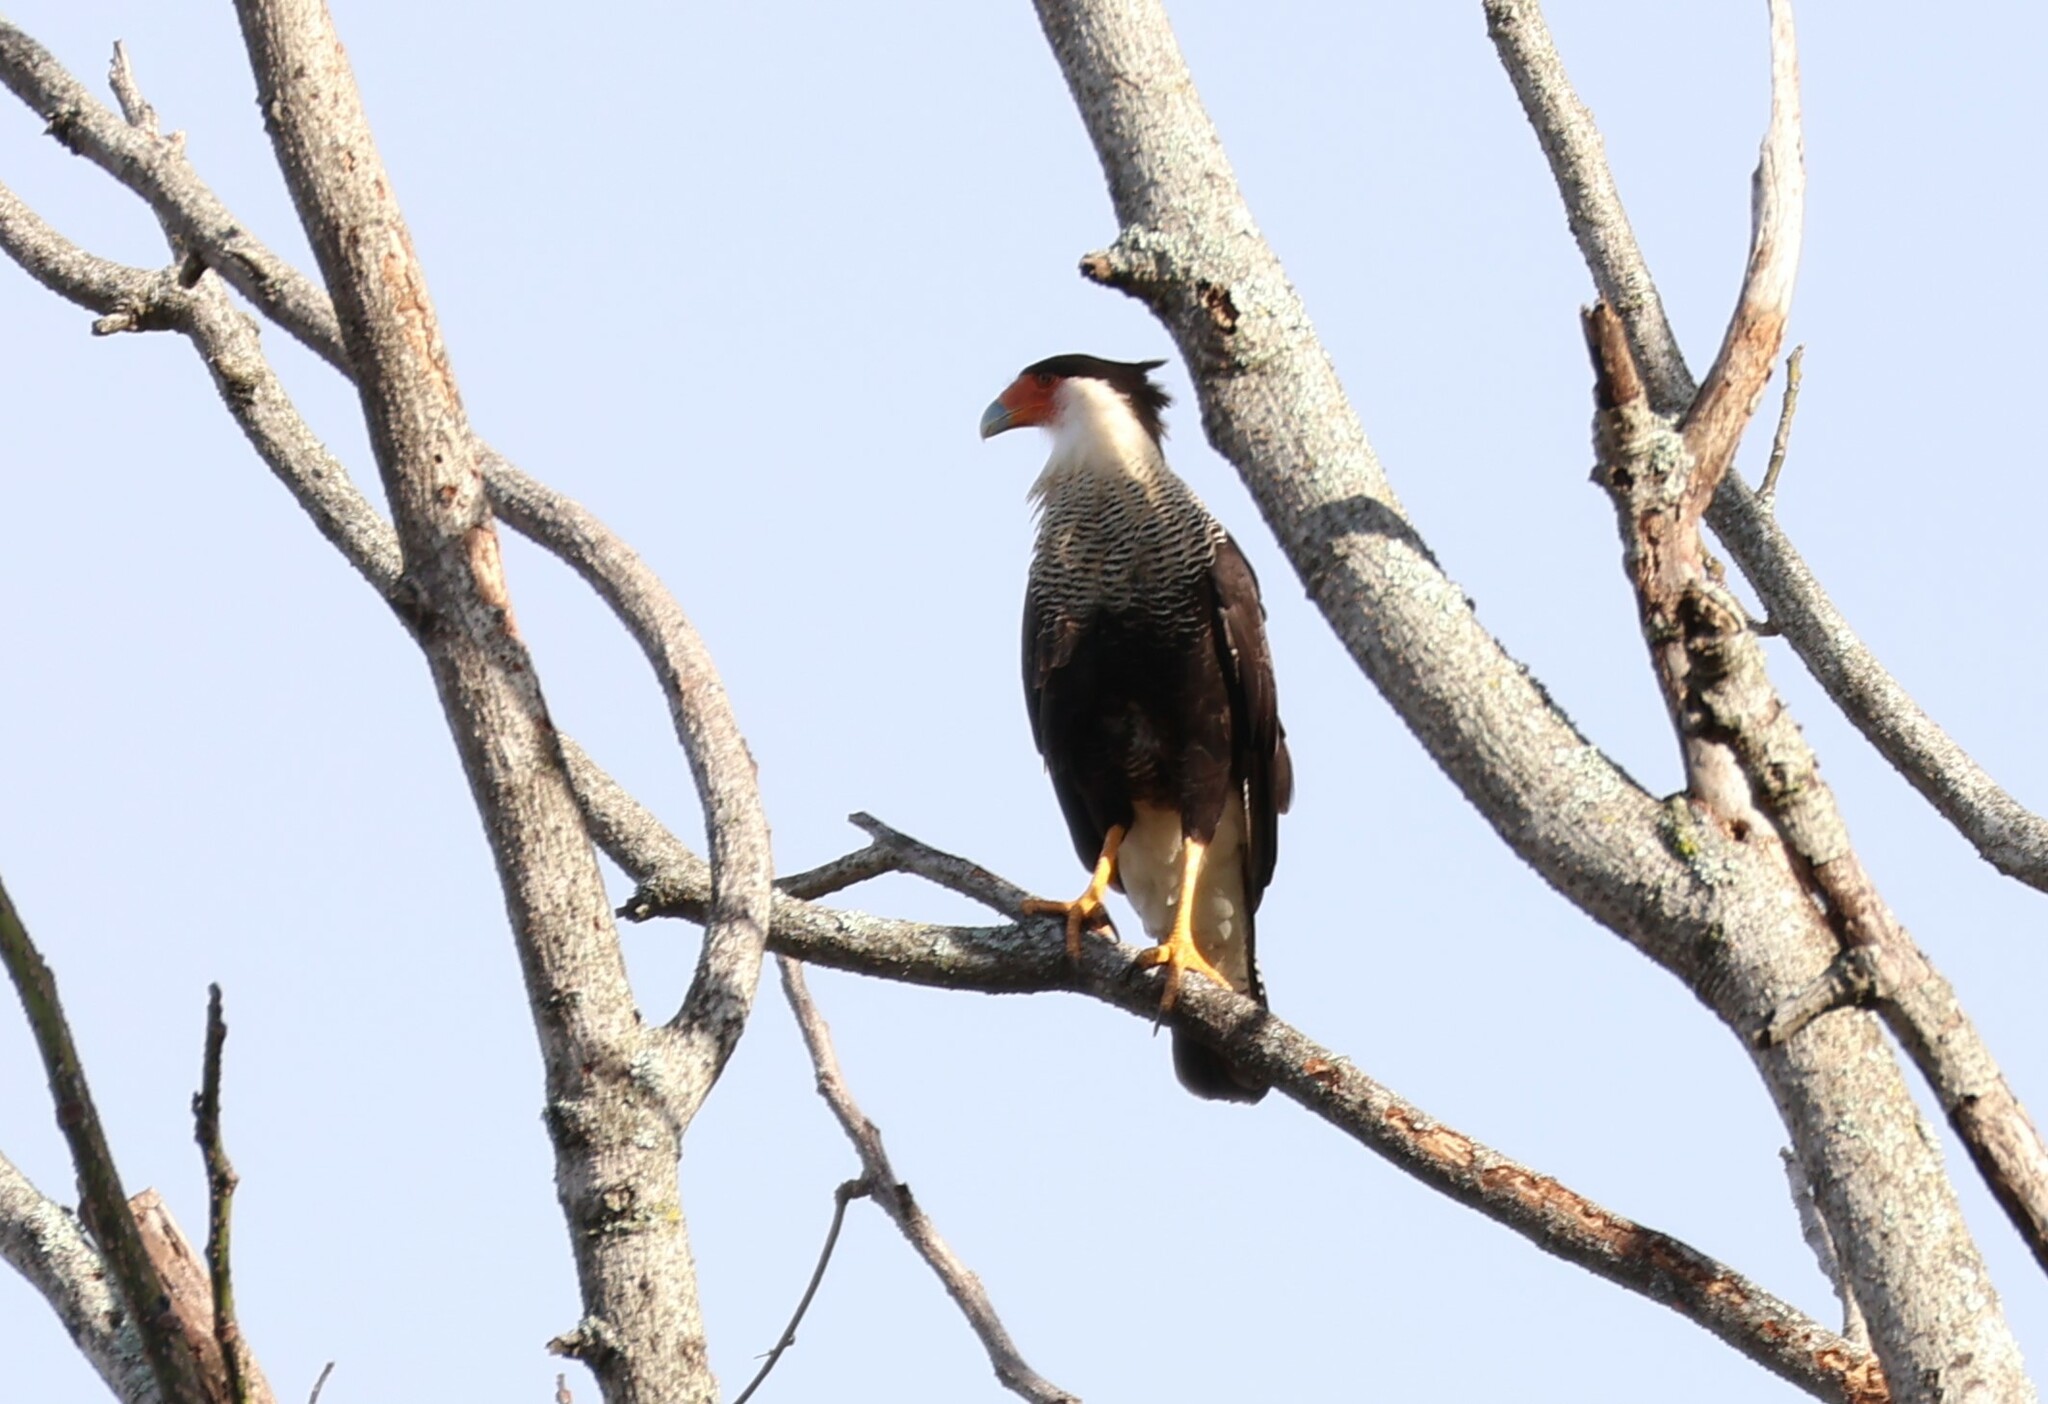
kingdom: Animalia
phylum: Chordata
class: Aves
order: Falconiformes
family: Falconidae
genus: Caracara
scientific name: Caracara plancus
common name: Southern caracara
